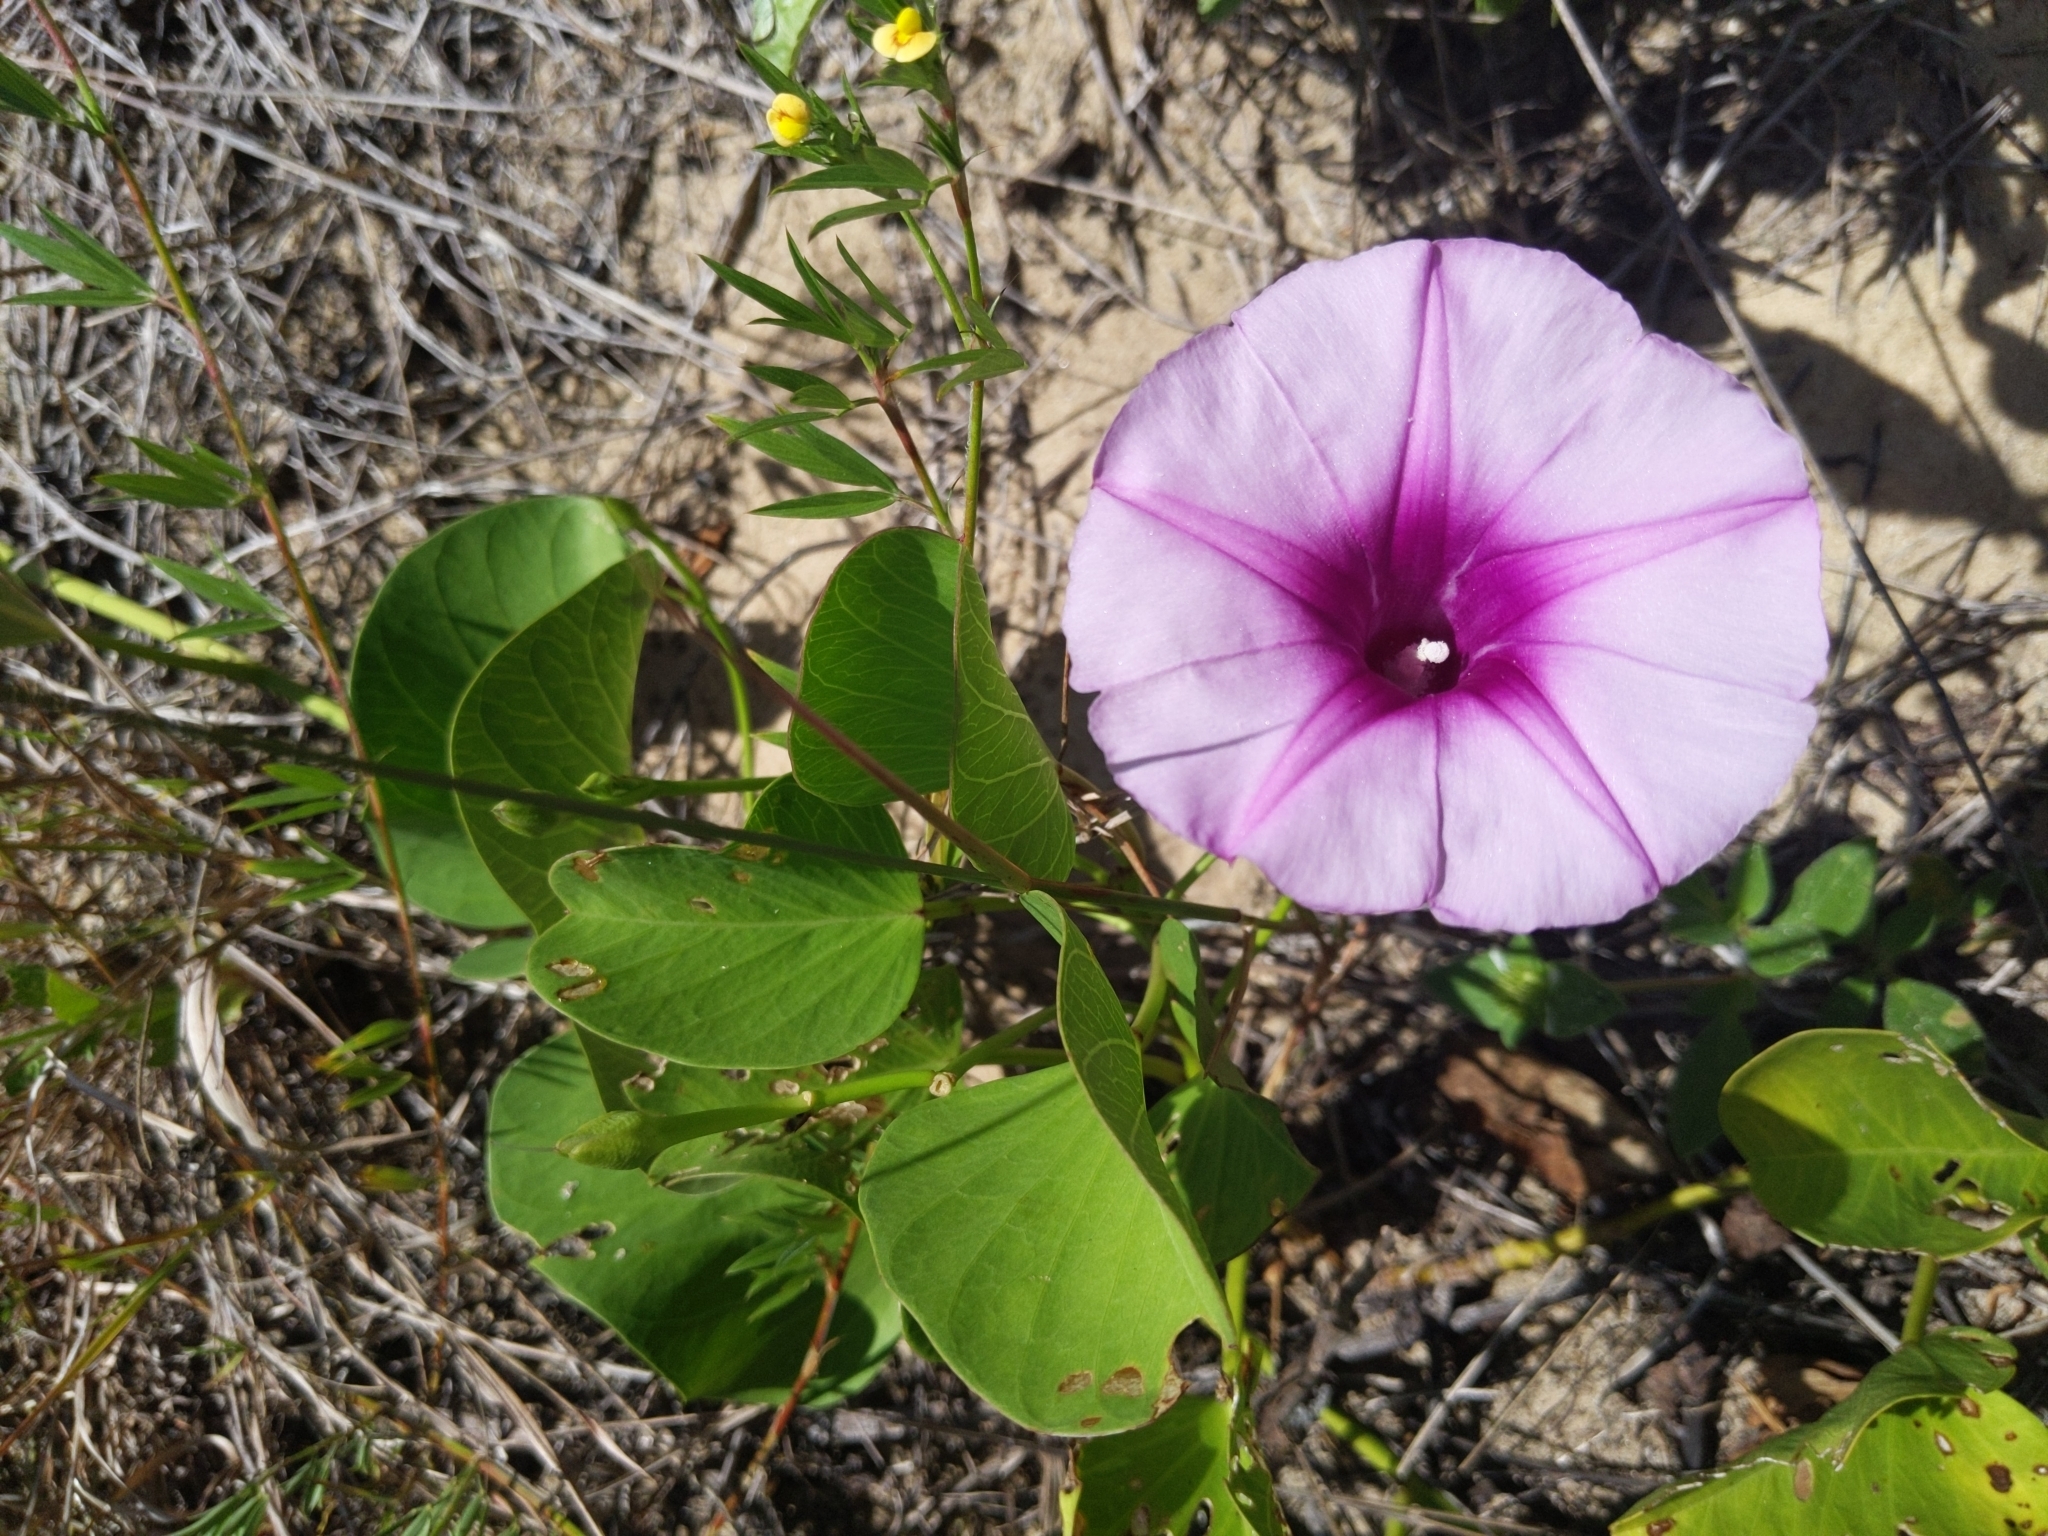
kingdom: Plantae
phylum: Tracheophyta
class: Magnoliopsida
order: Solanales
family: Convolvulaceae
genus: Ipomoea
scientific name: Ipomoea pes-caprae
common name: Beach morning glory
